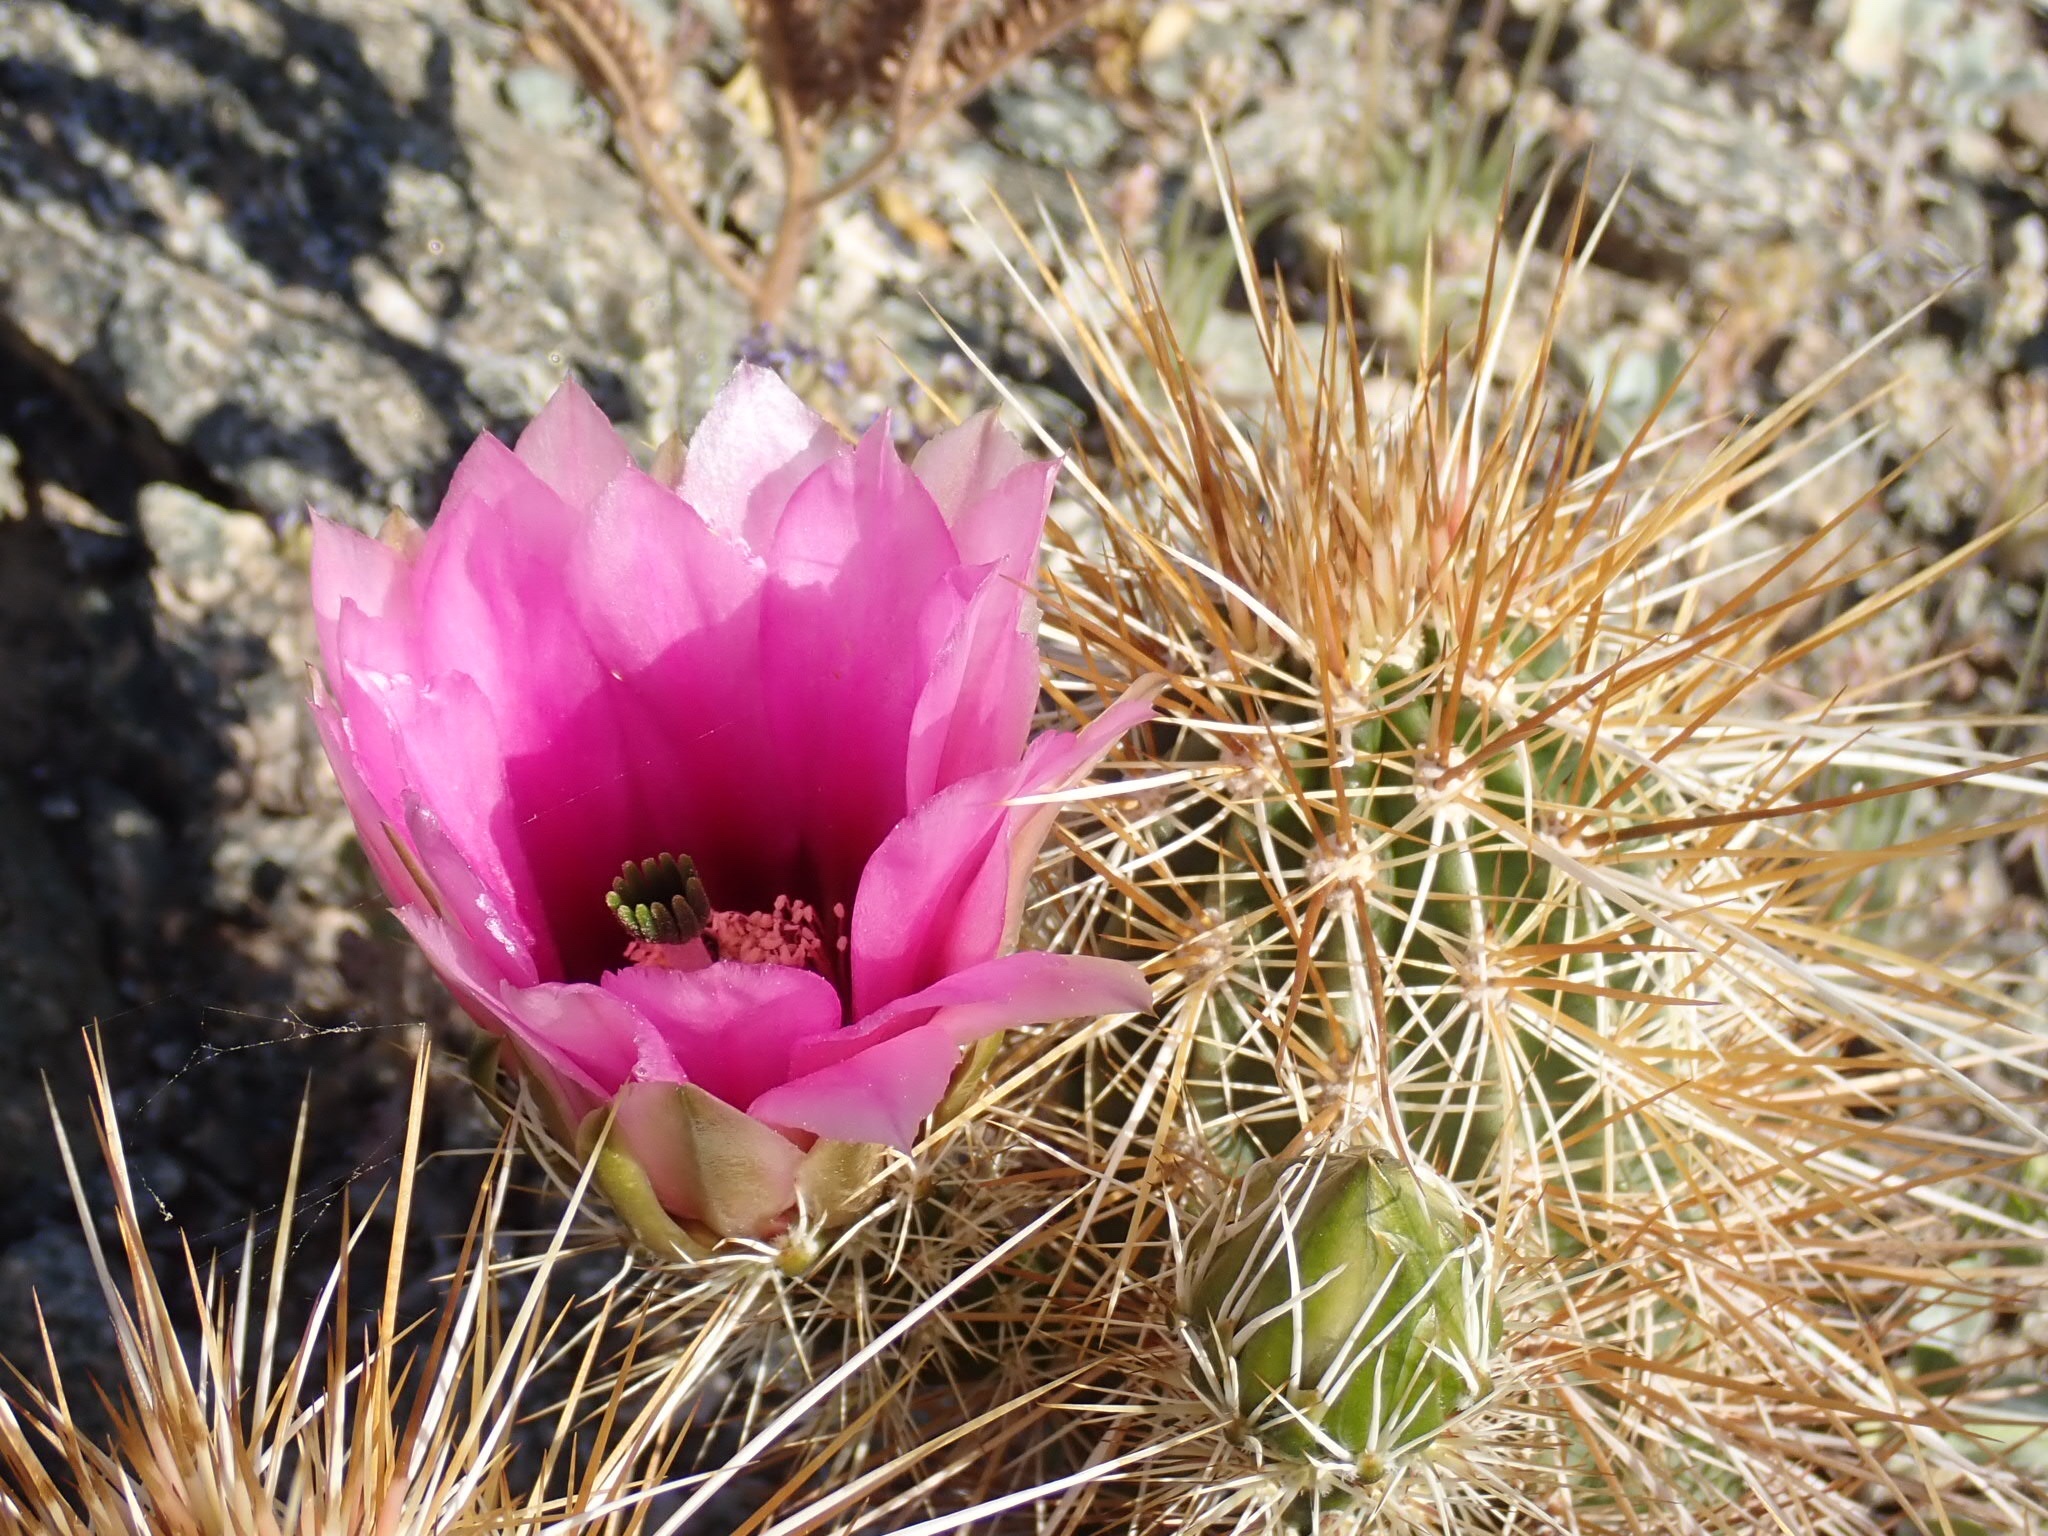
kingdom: Plantae
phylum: Tracheophyta
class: Magnoliopsida
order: Caryophyllales
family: Cactaceae
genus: Echinocereus
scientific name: Echinocereus engelmannii
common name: Engelmann's hedgehog cactus
